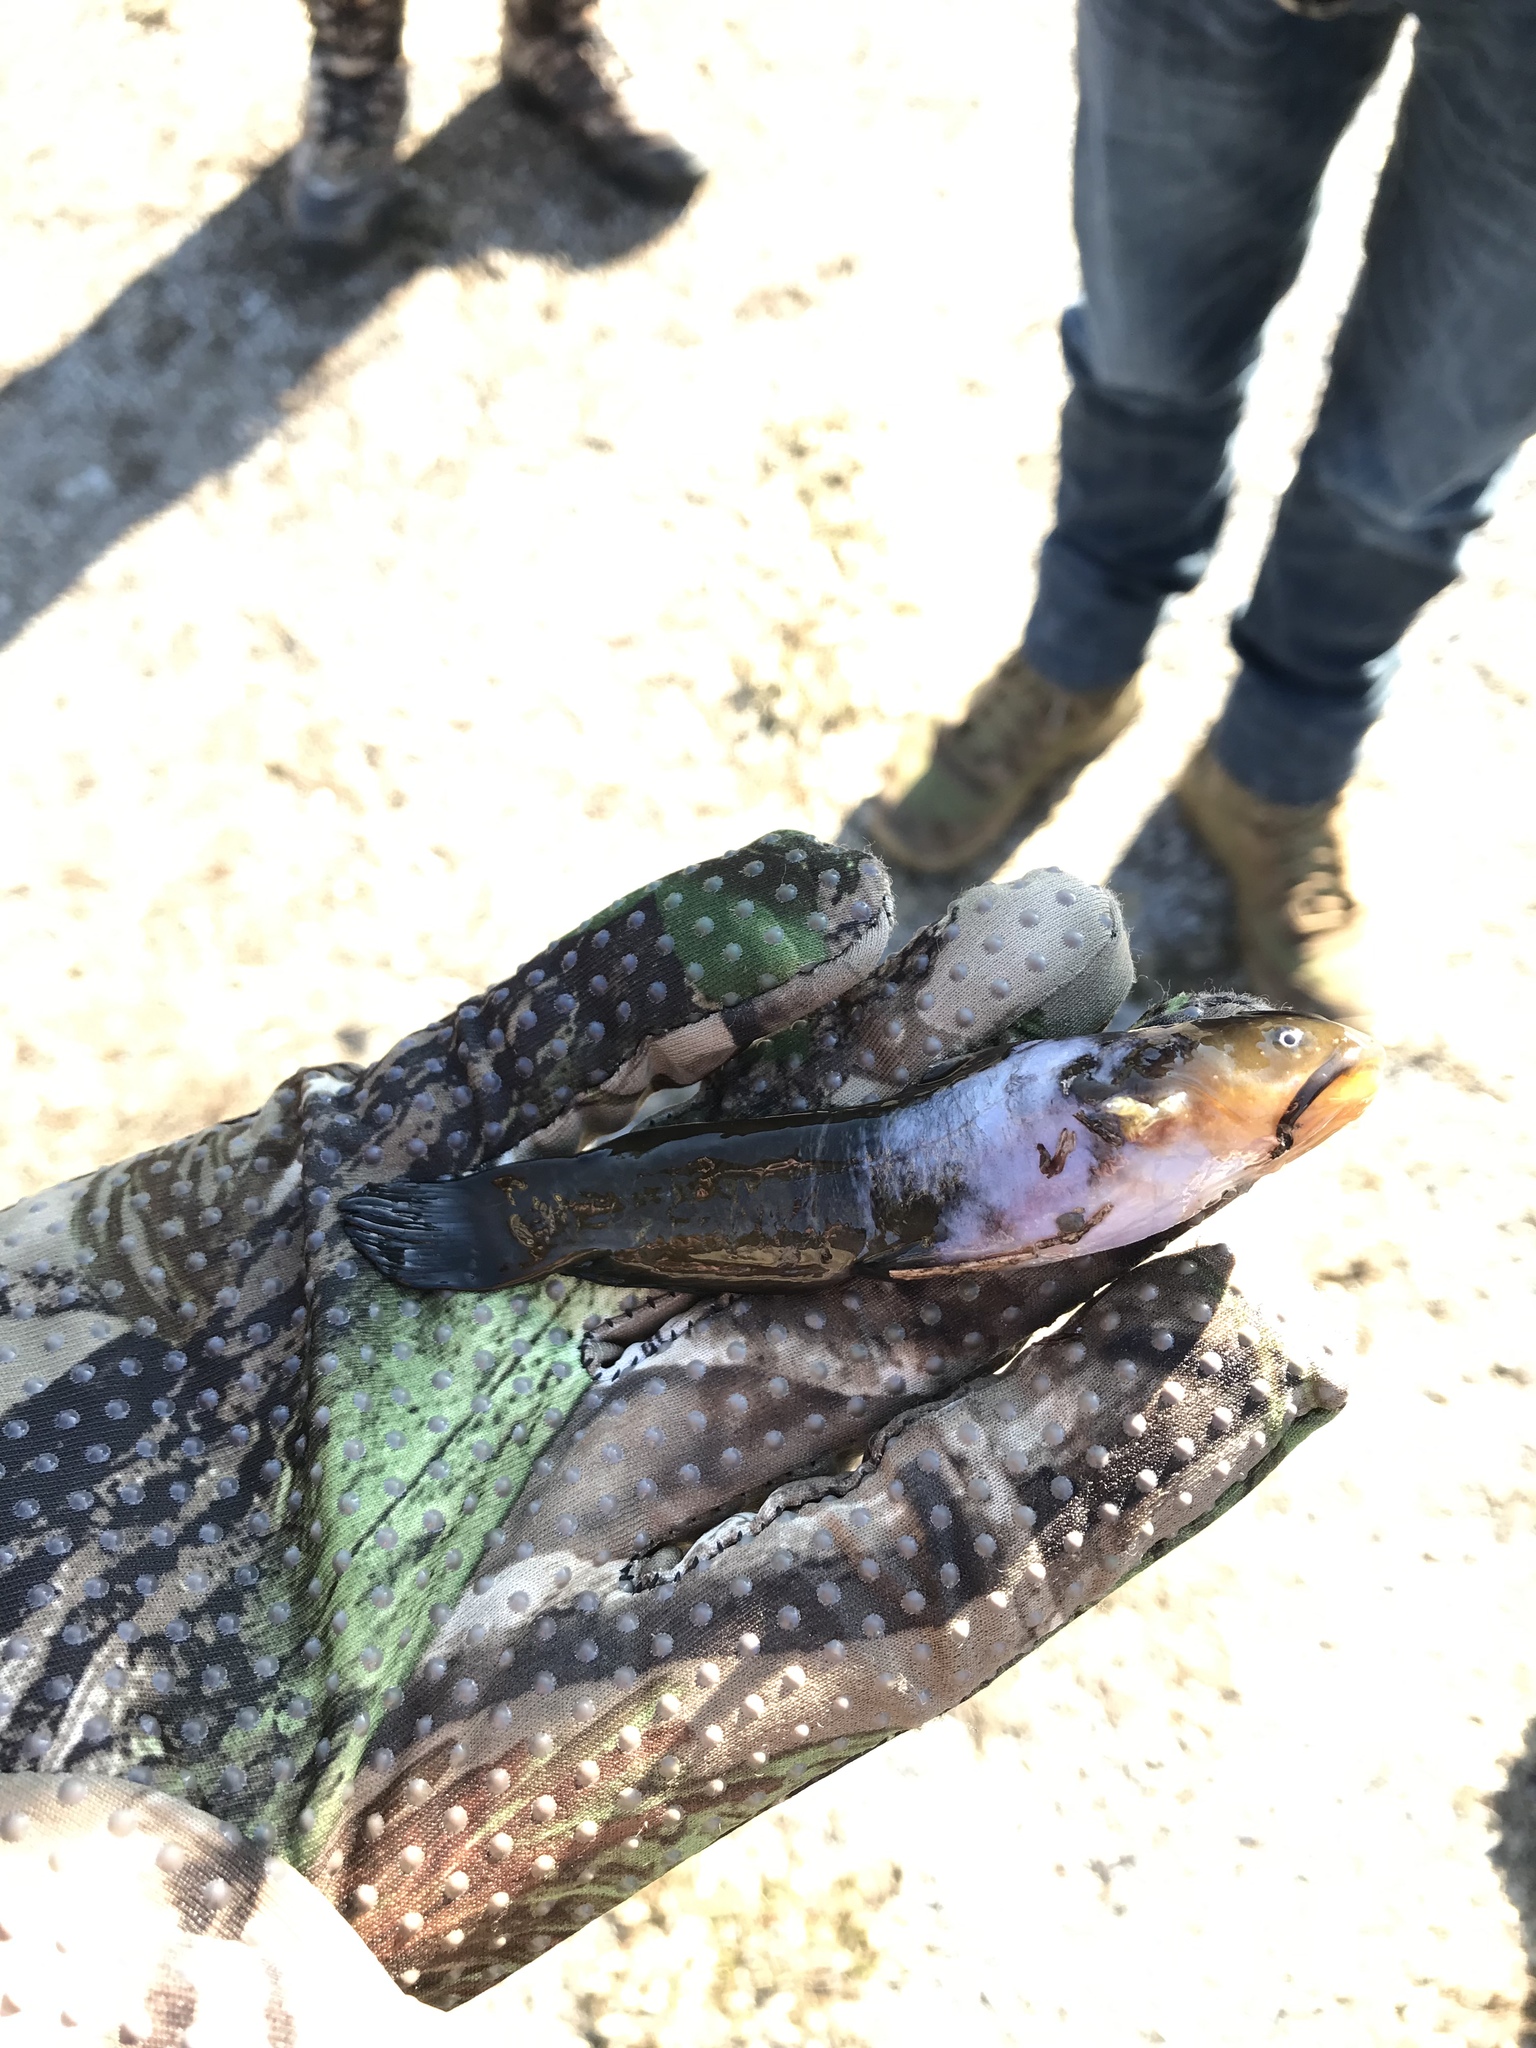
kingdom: Animalia
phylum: Chordata
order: Siluriformes
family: Ictaluridae
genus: Ameiurus
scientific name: Ameiurus natalis
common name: Yellow bullhead
